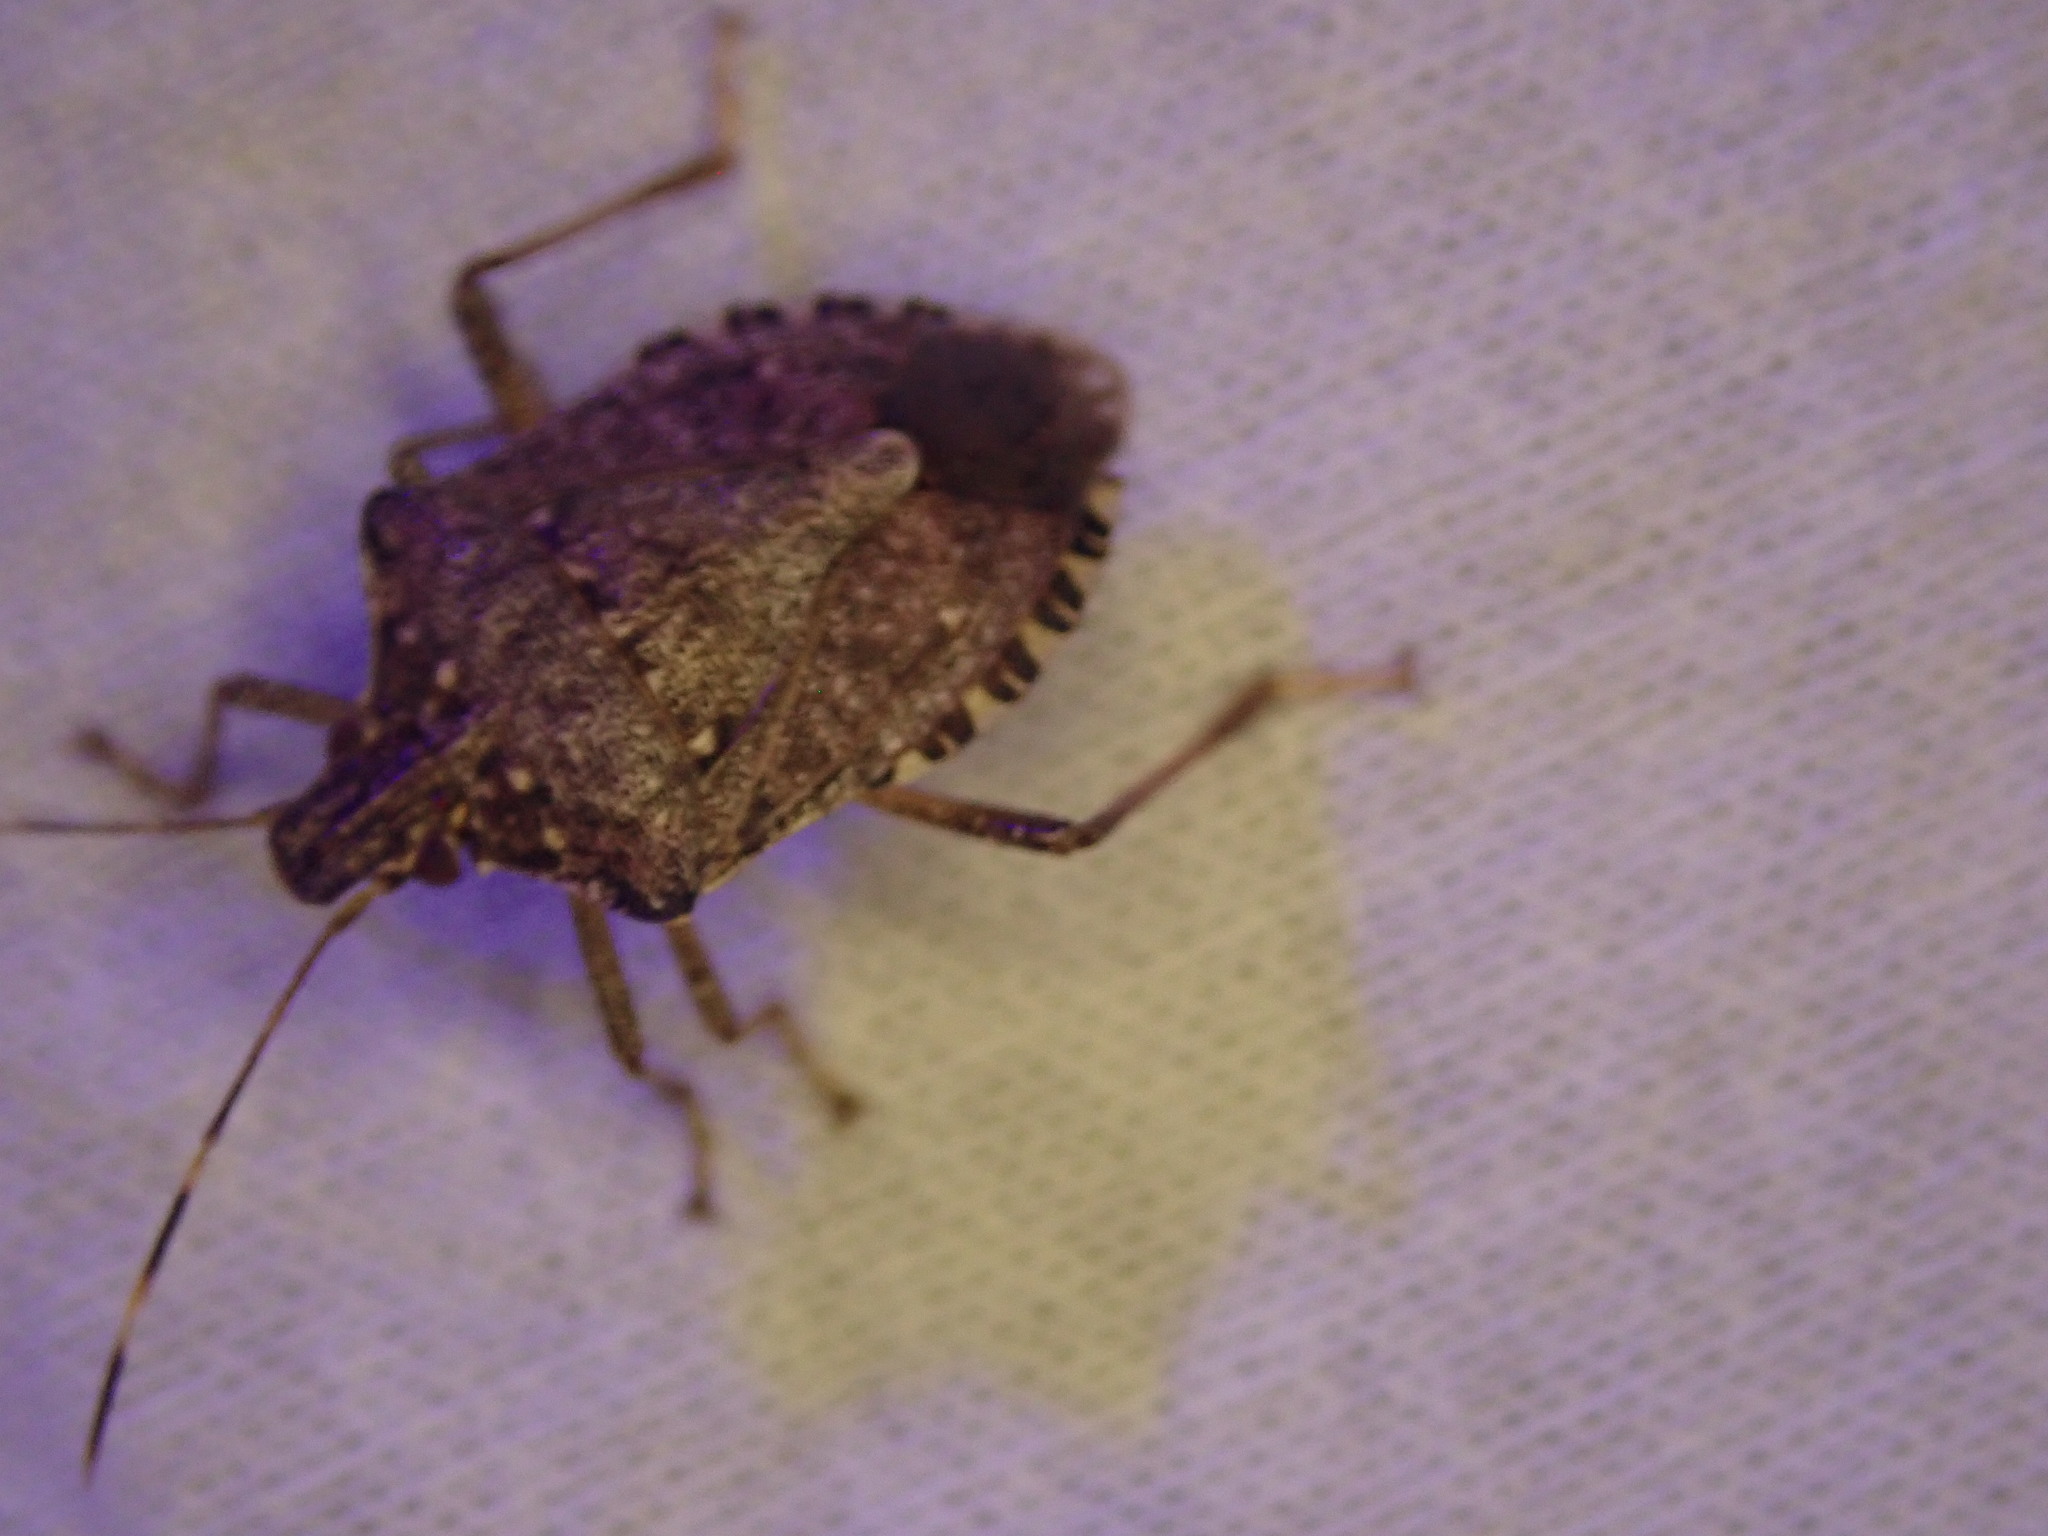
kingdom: Animalia
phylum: Arthropoda
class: Insecta
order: Hemiptera
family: Pentatomidae
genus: Halyomorpha
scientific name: Halyomorpha halys
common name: Brown marmorated stink bug
